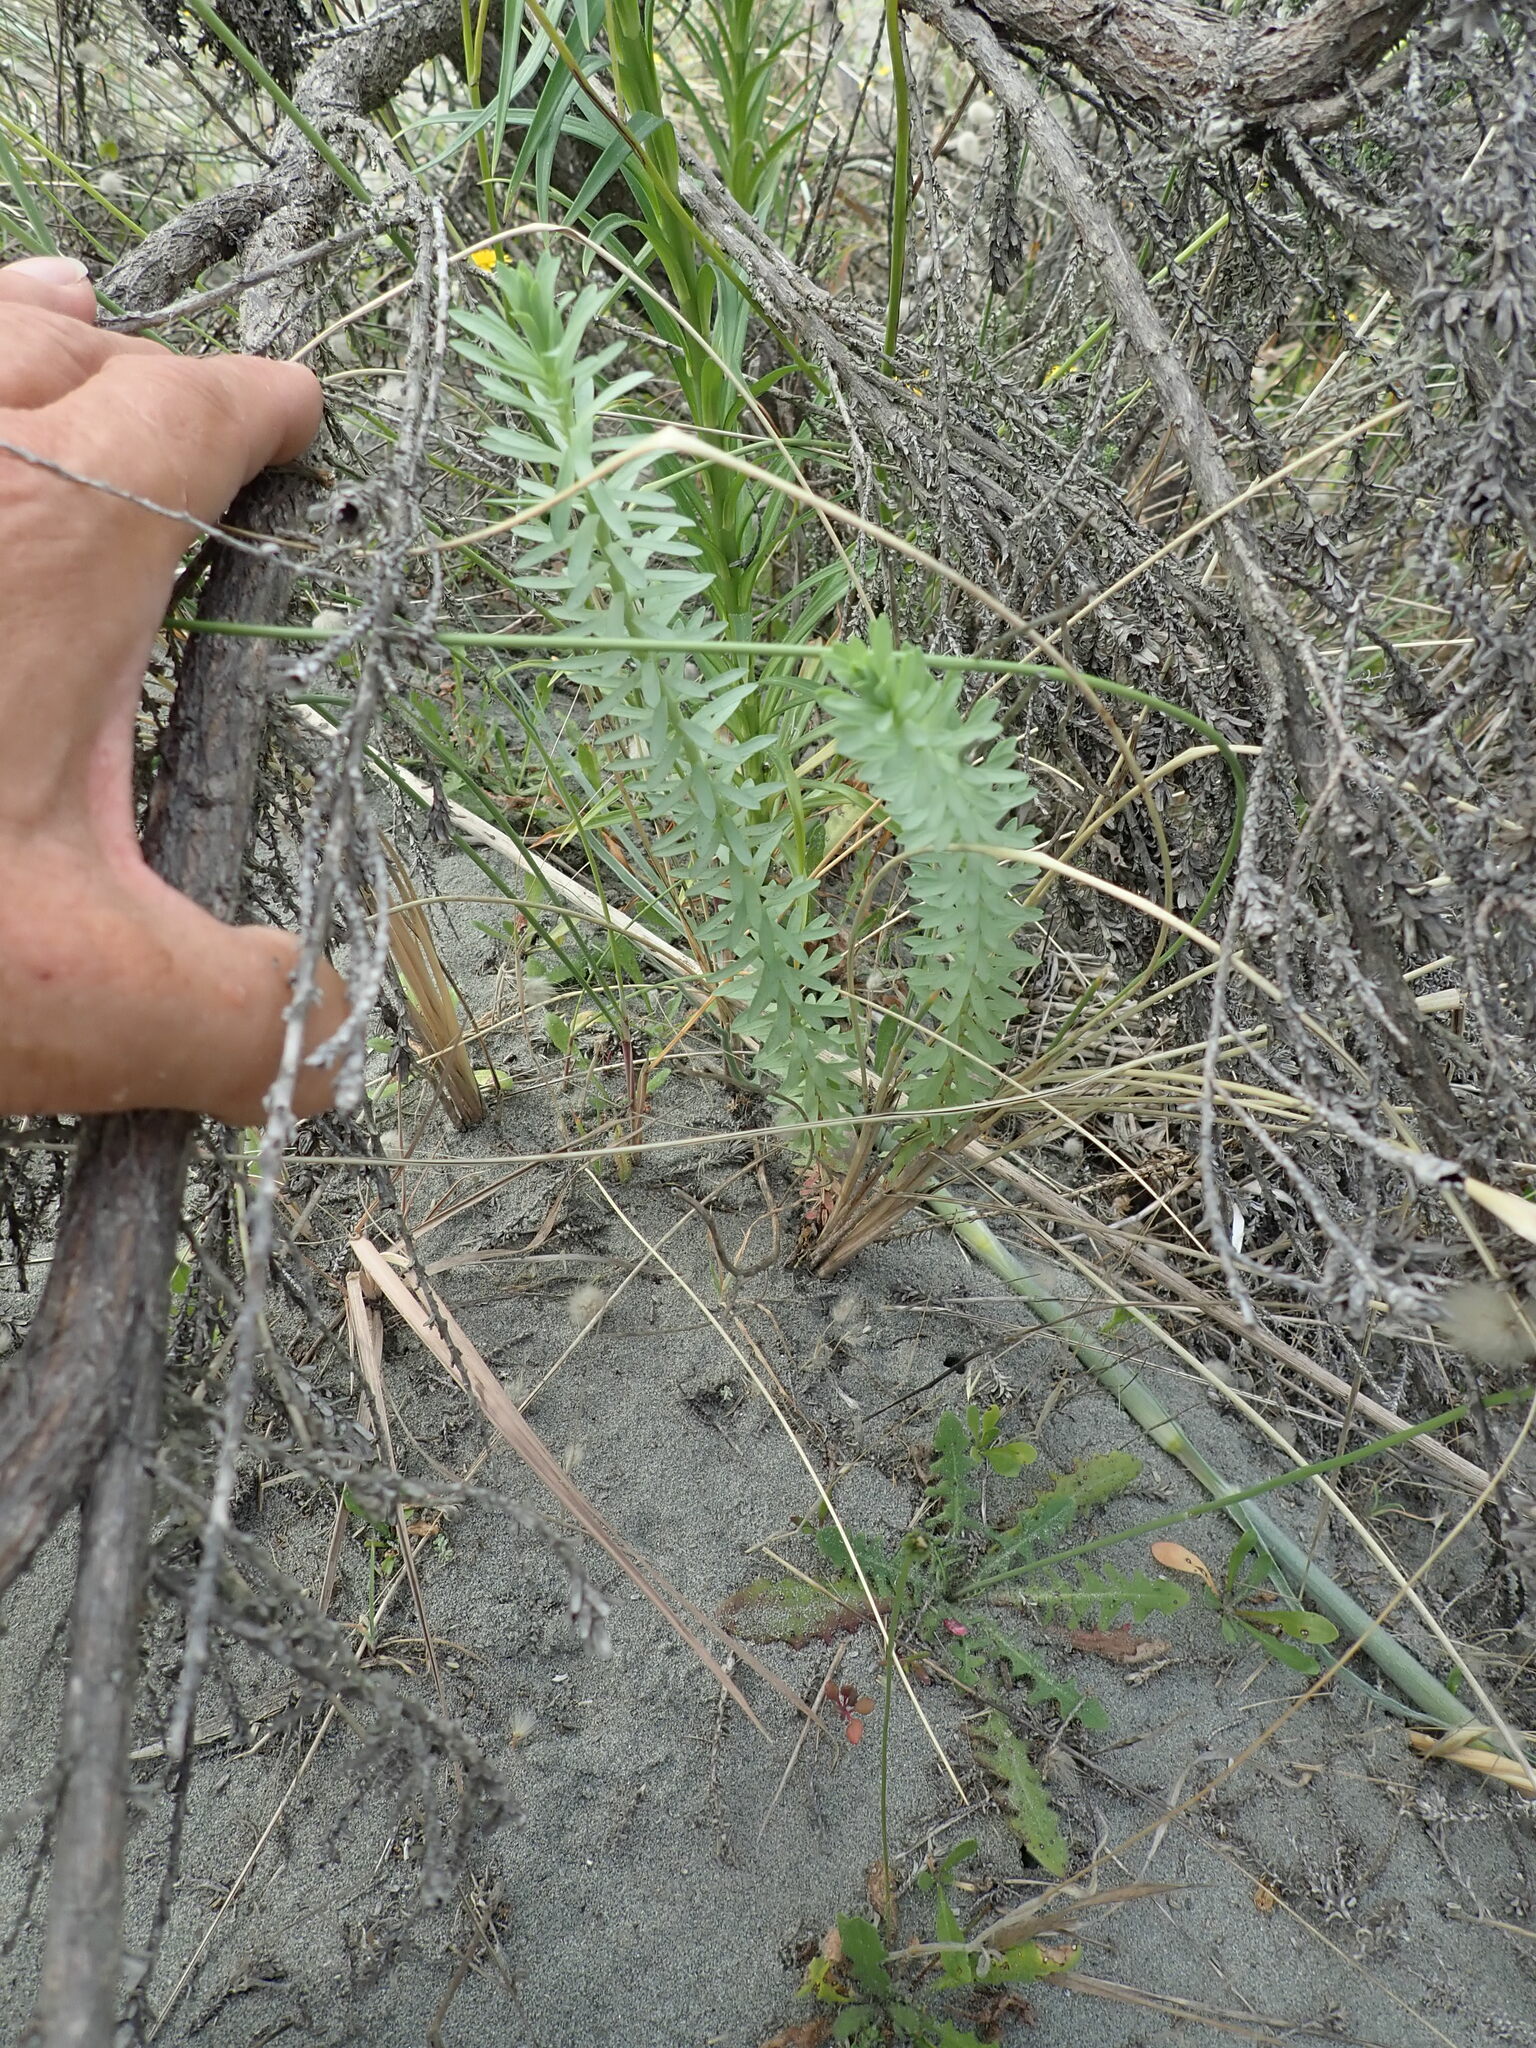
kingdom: Plantae
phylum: Tracheophyta
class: Magnoliopsida
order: Malpighiales
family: Euphorbiaceae
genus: Euphorbia
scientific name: Euphorbia paralias
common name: Sea spurge
